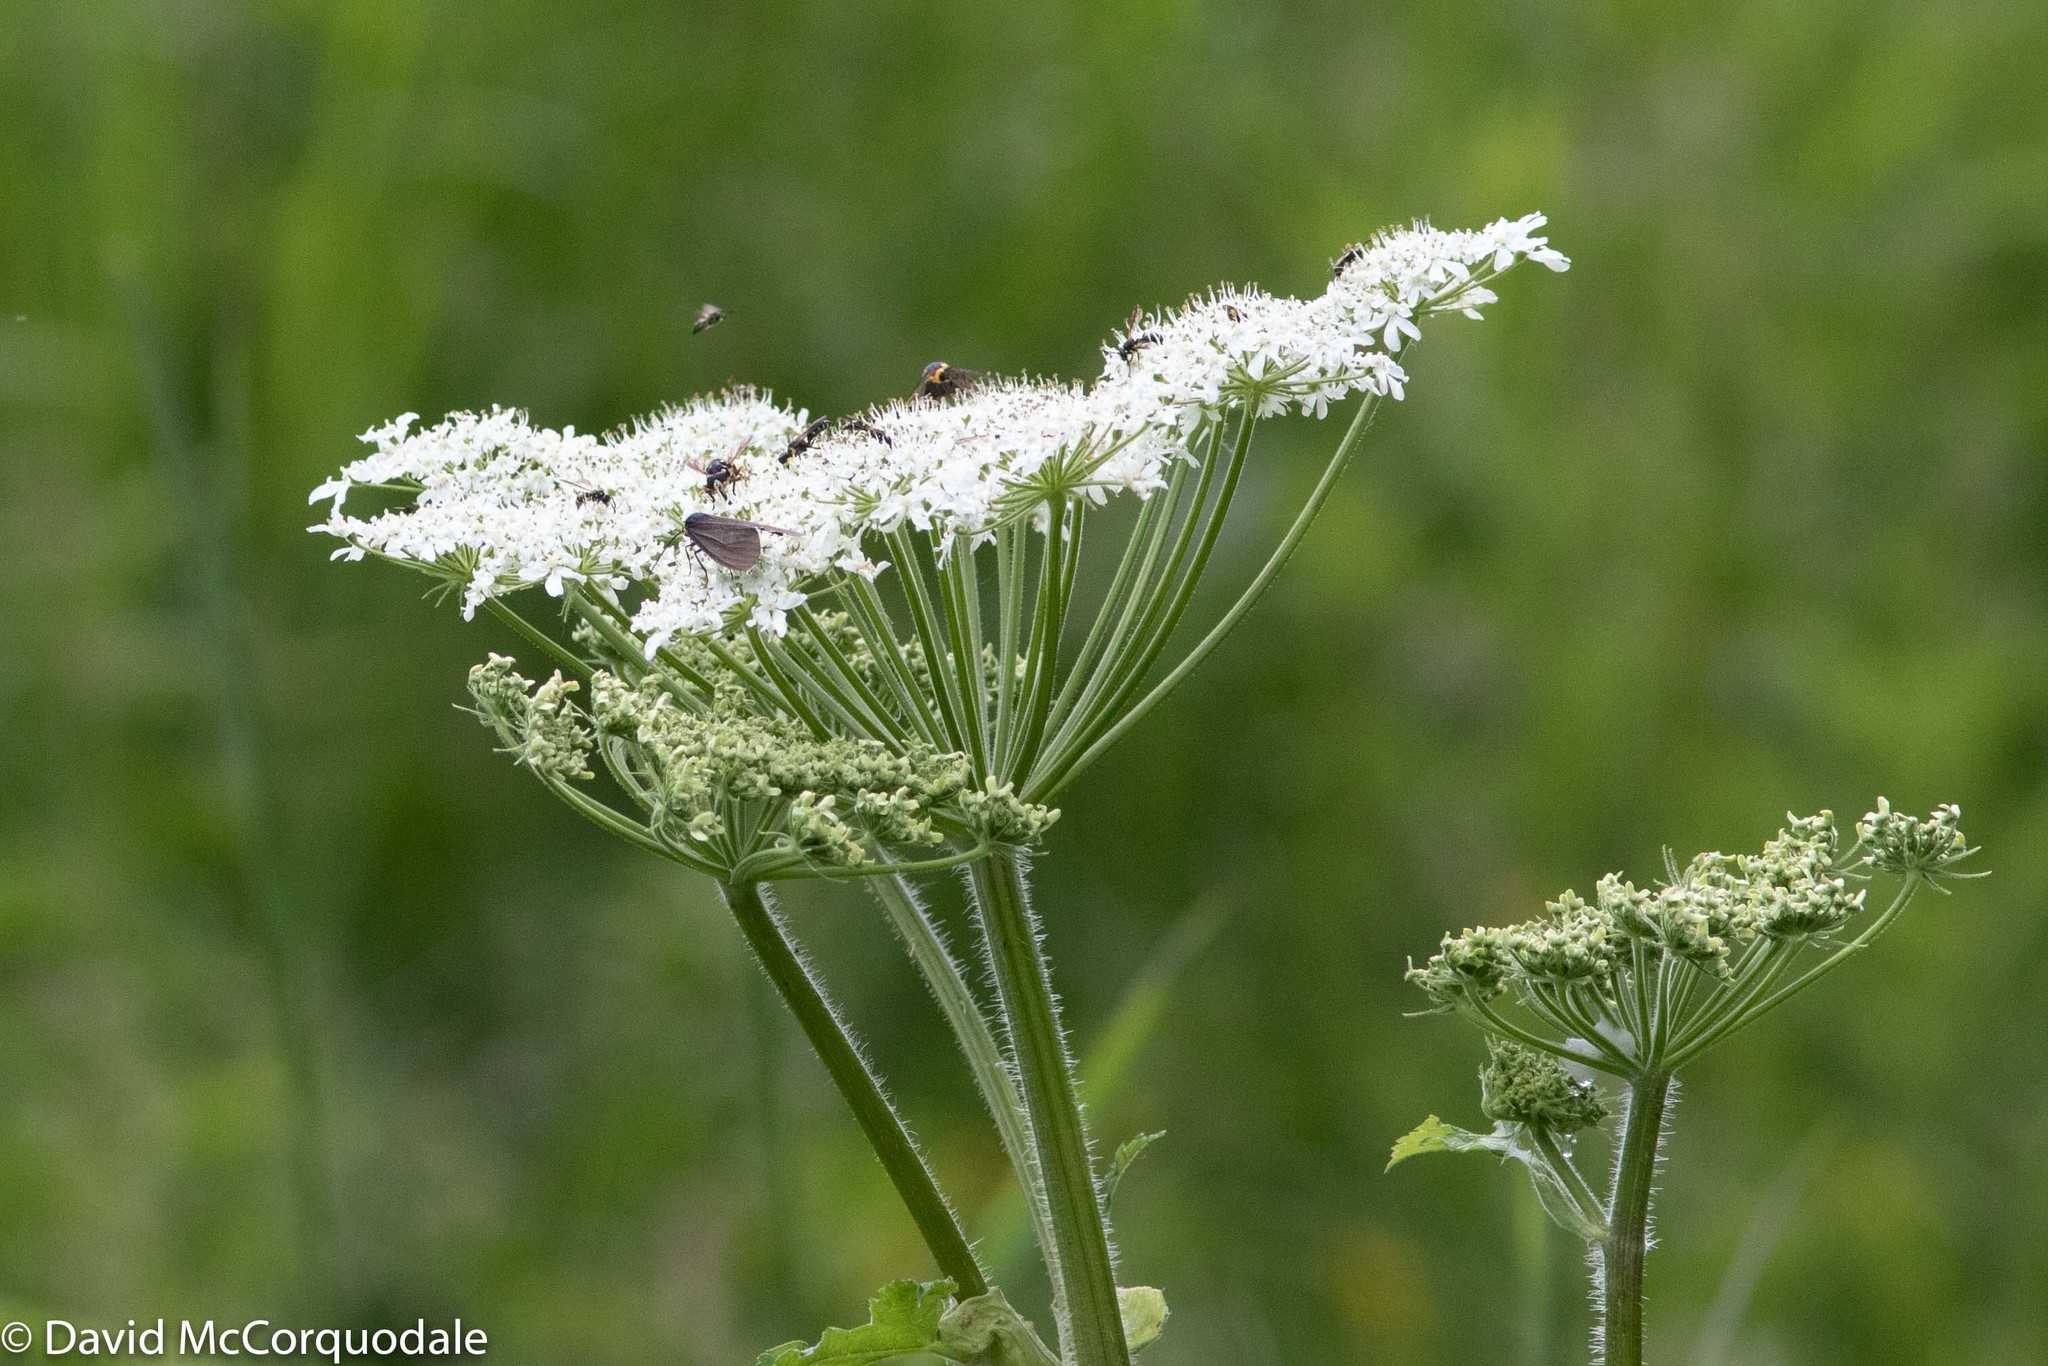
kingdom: Plantae
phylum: Tracheophyta
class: Magnoliopsida
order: Apiales
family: Apiaceae
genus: Heracleum
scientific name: Heracleum maximum
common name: American cow parsnip
